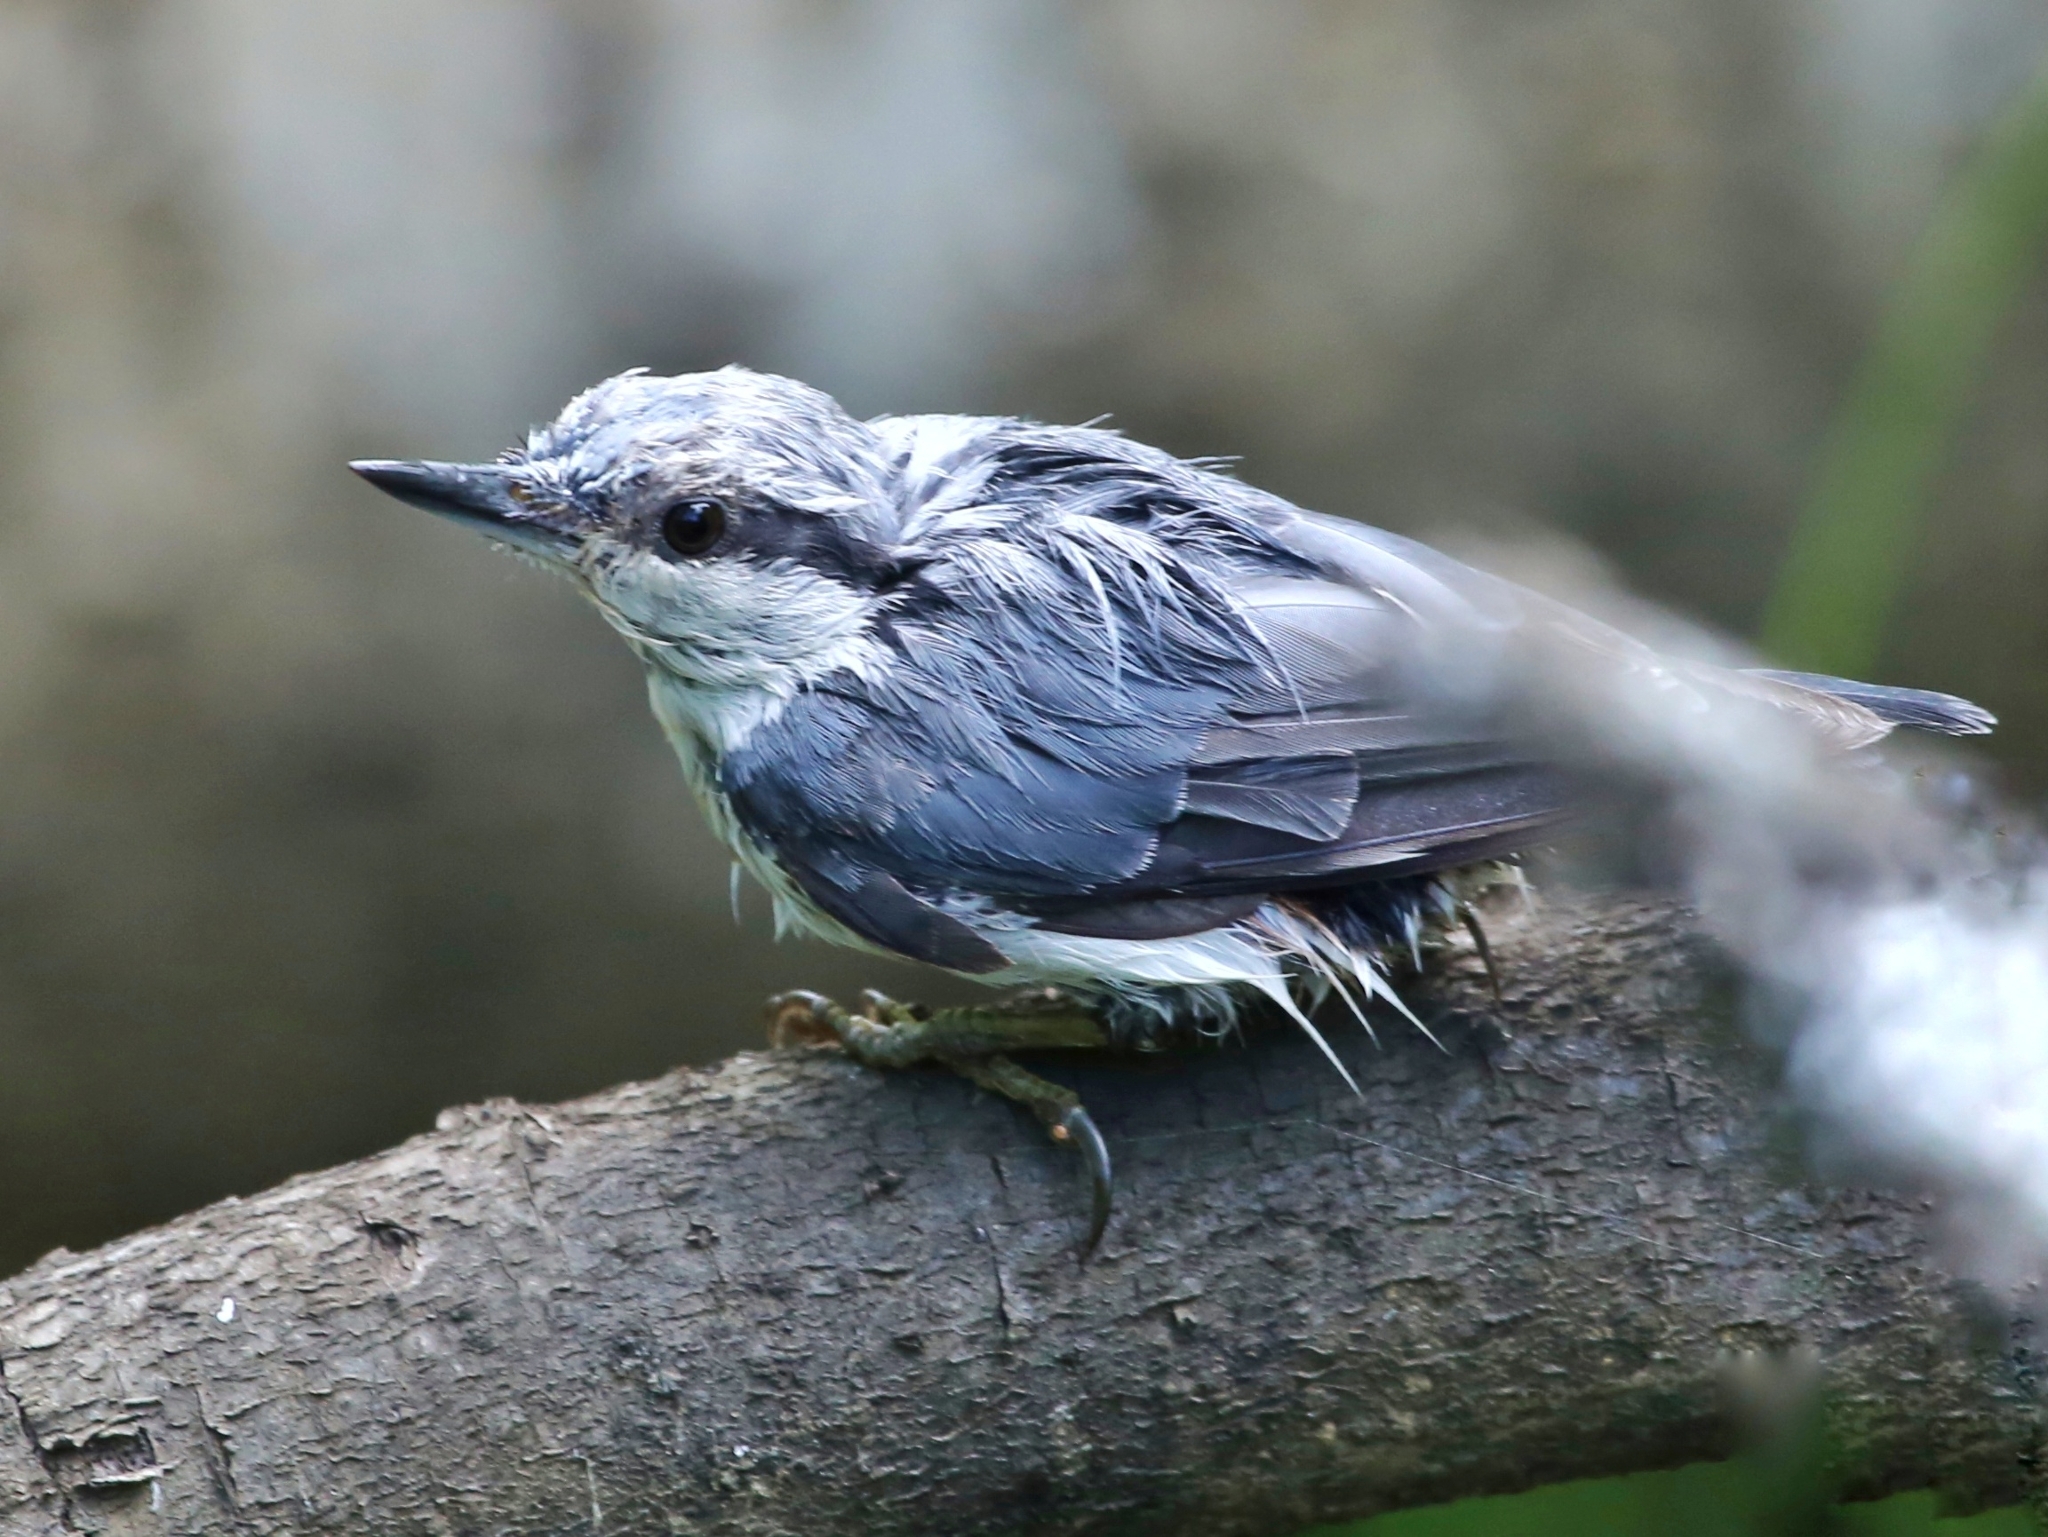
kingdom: Animalia
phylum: Chordata
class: Aves
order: Passeriformes
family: Sittidae
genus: Sitta
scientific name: Sitta europaea
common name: Eurasian nuthatch
